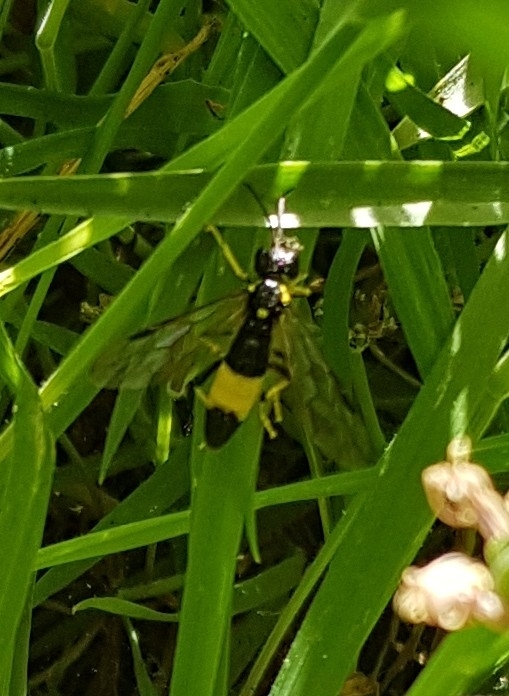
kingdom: Animalia
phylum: Arthropoda
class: Insecta
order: Hymenoptera
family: Tenthredinidae
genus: Tenthredo
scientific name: Tenthredo maculata
